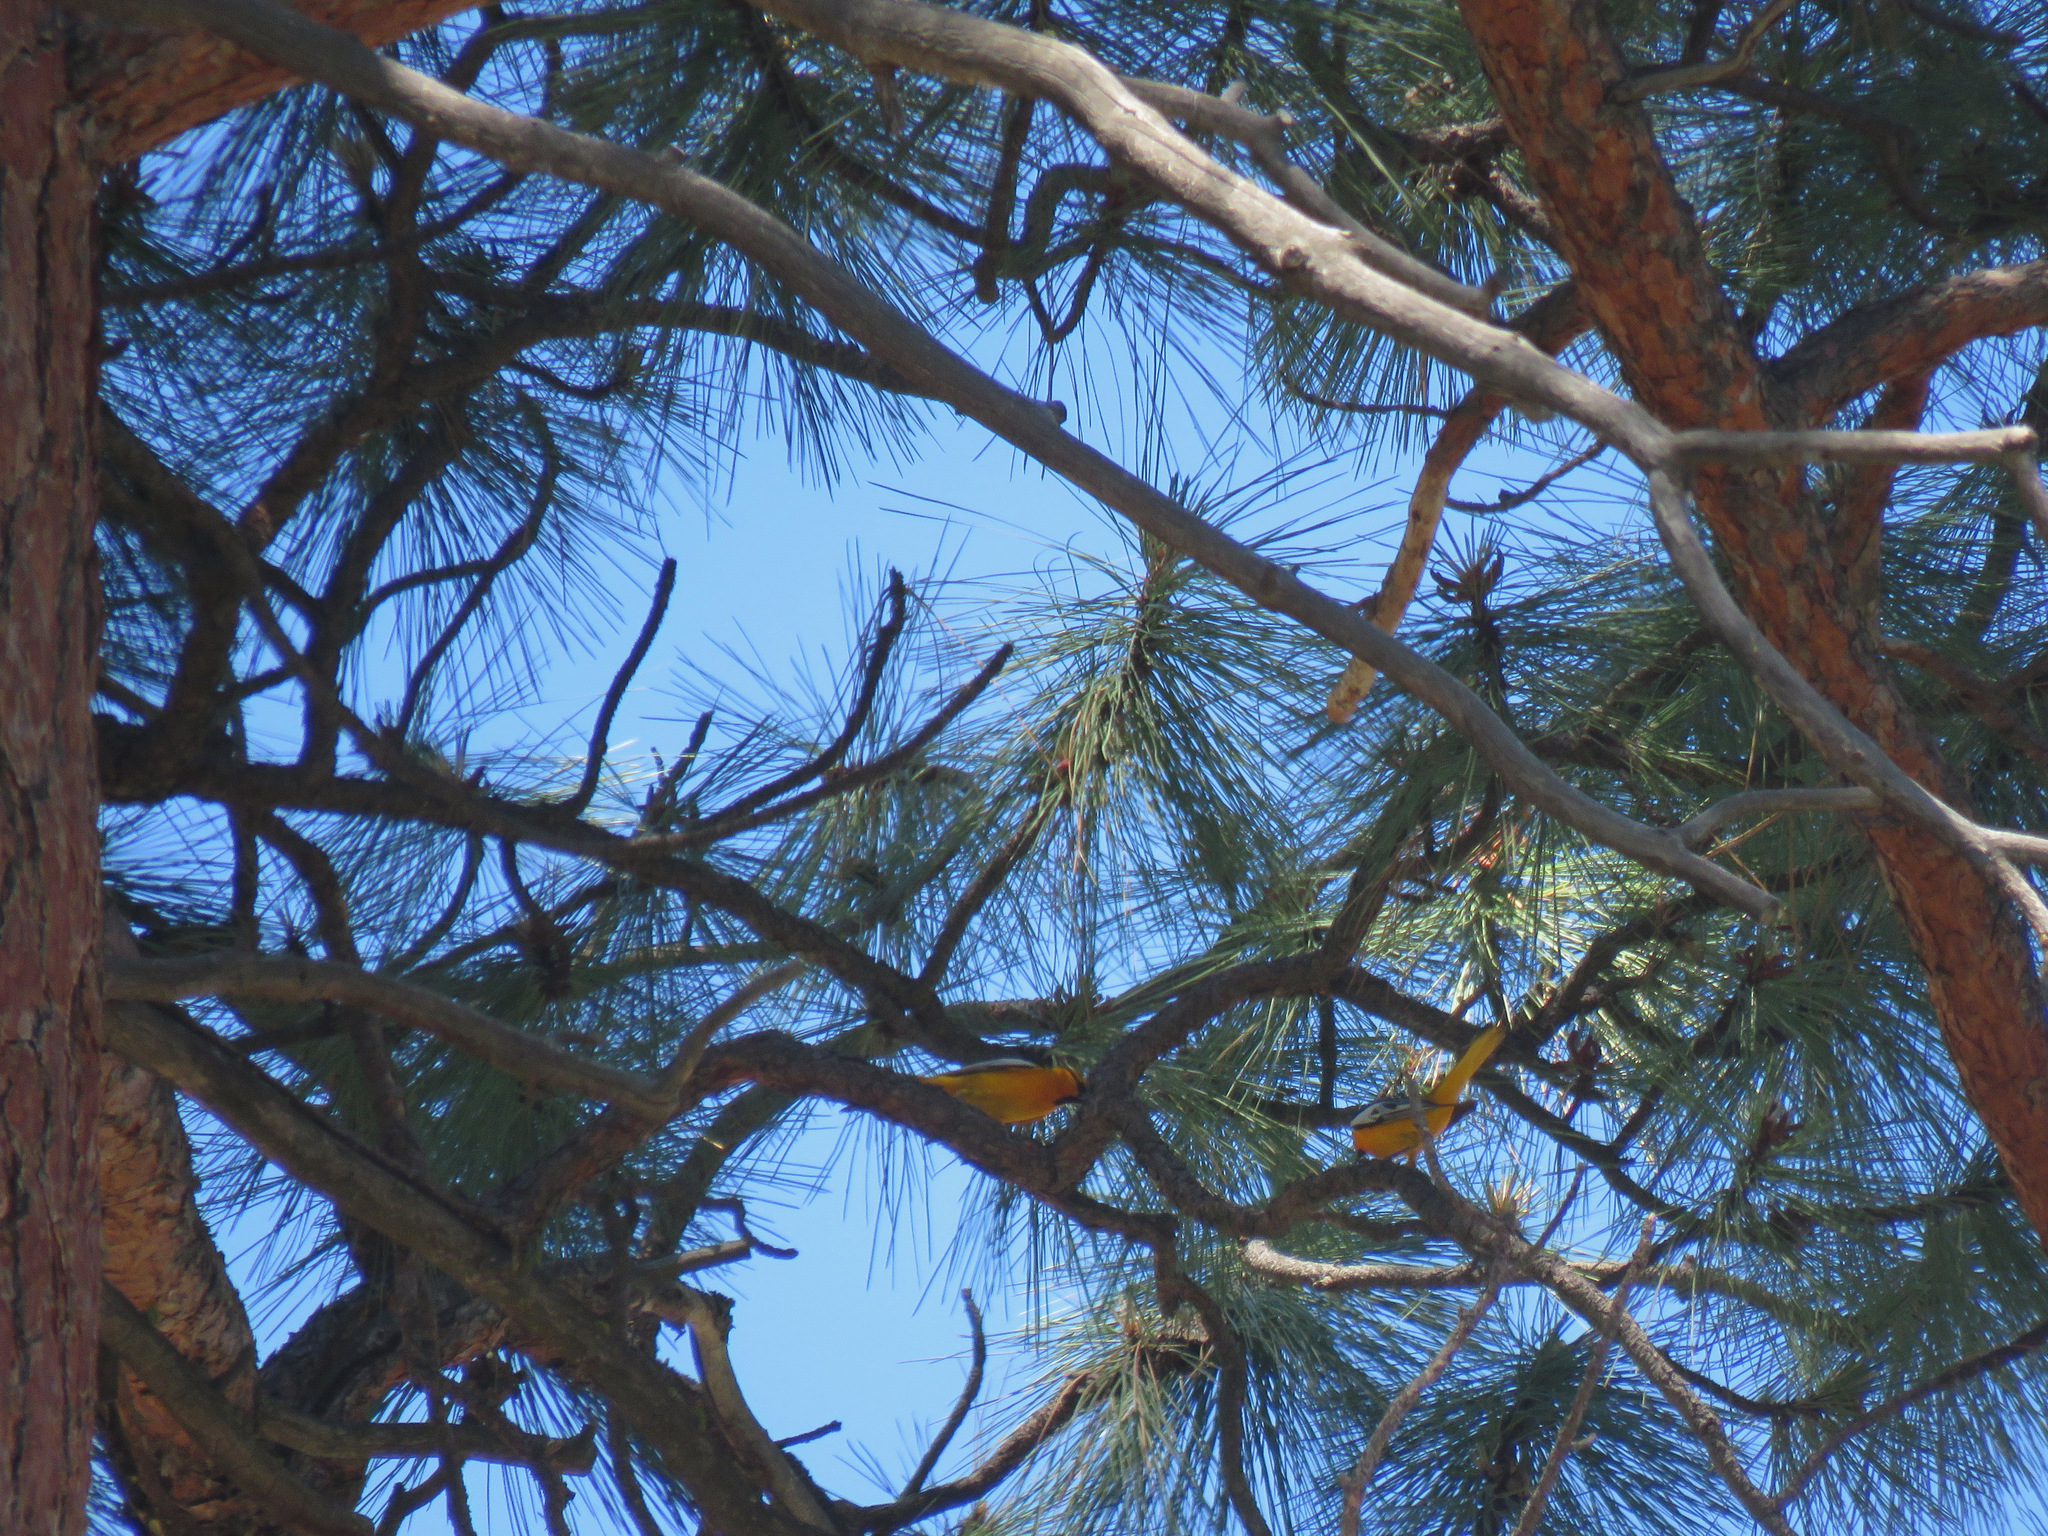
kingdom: Animalia
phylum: Chordata
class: Aves
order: Passeriformes
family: Icteridae
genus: Icterus
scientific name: Icterus bullockii
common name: Bullock's oriole
